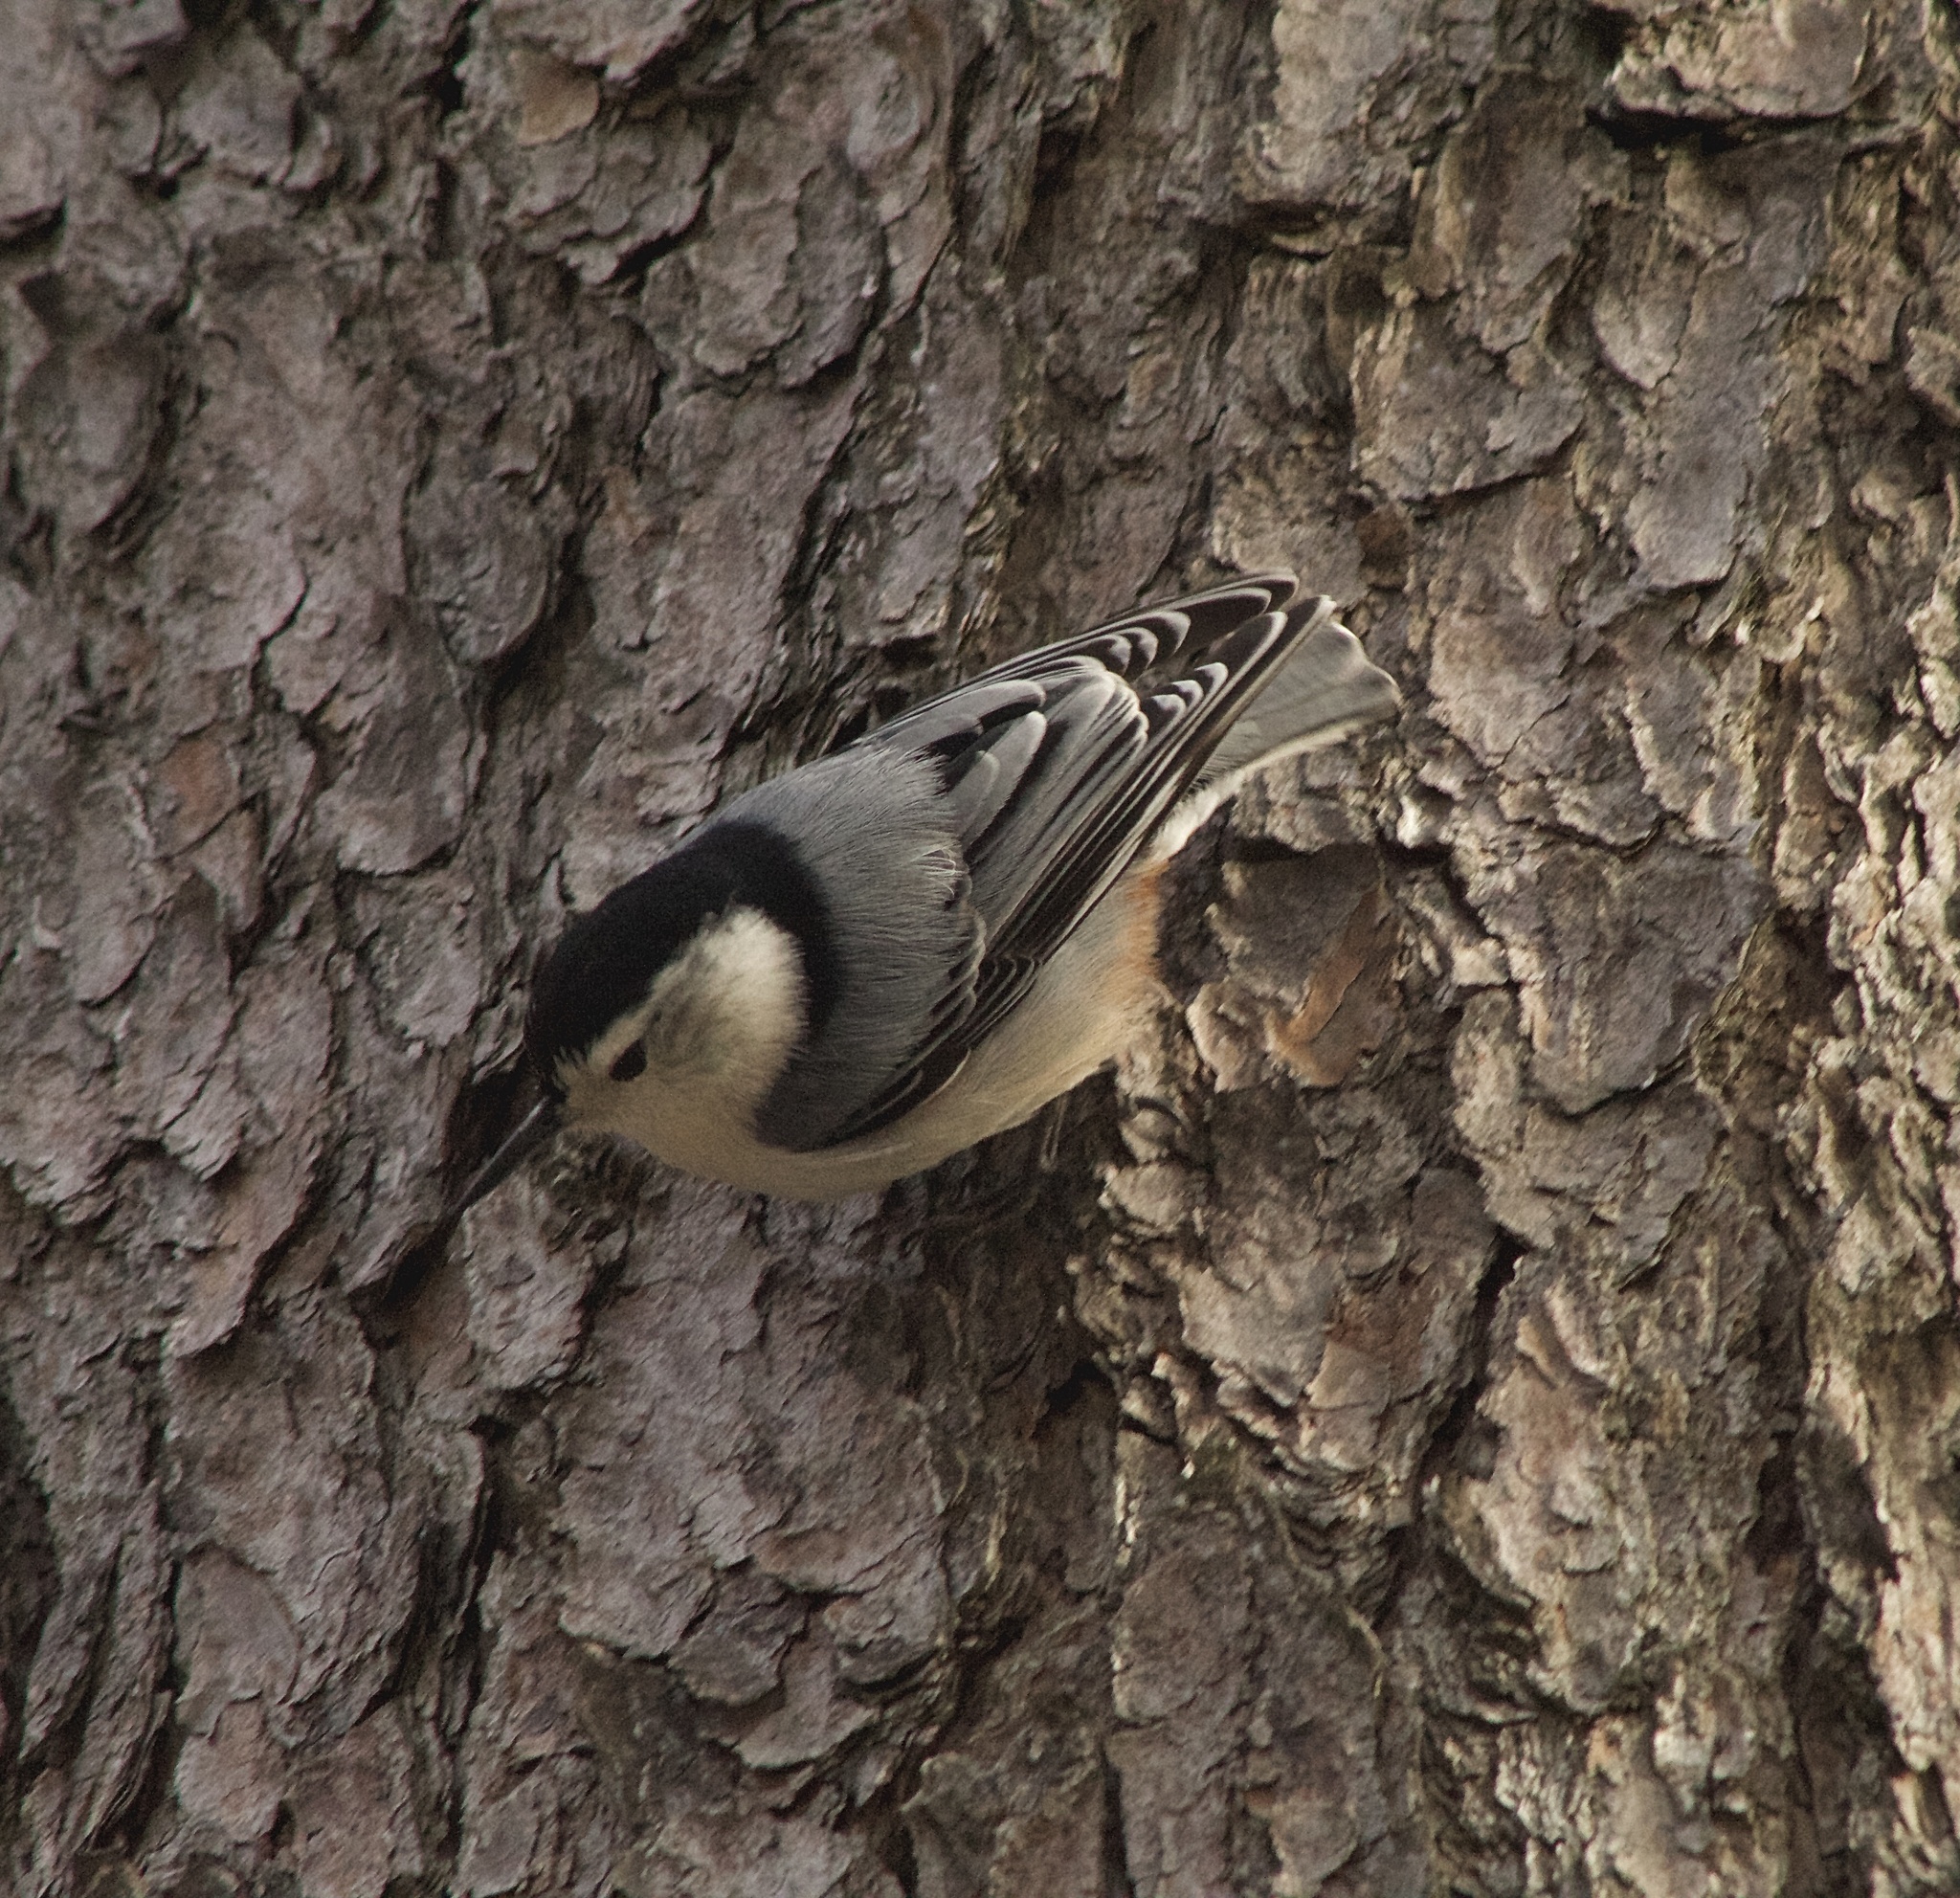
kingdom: Animalia
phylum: Chordata
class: Aves
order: Passeriformes
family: Sittidae
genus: Sitta
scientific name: Sitta carolinensis
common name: White-breasted nuthatch
